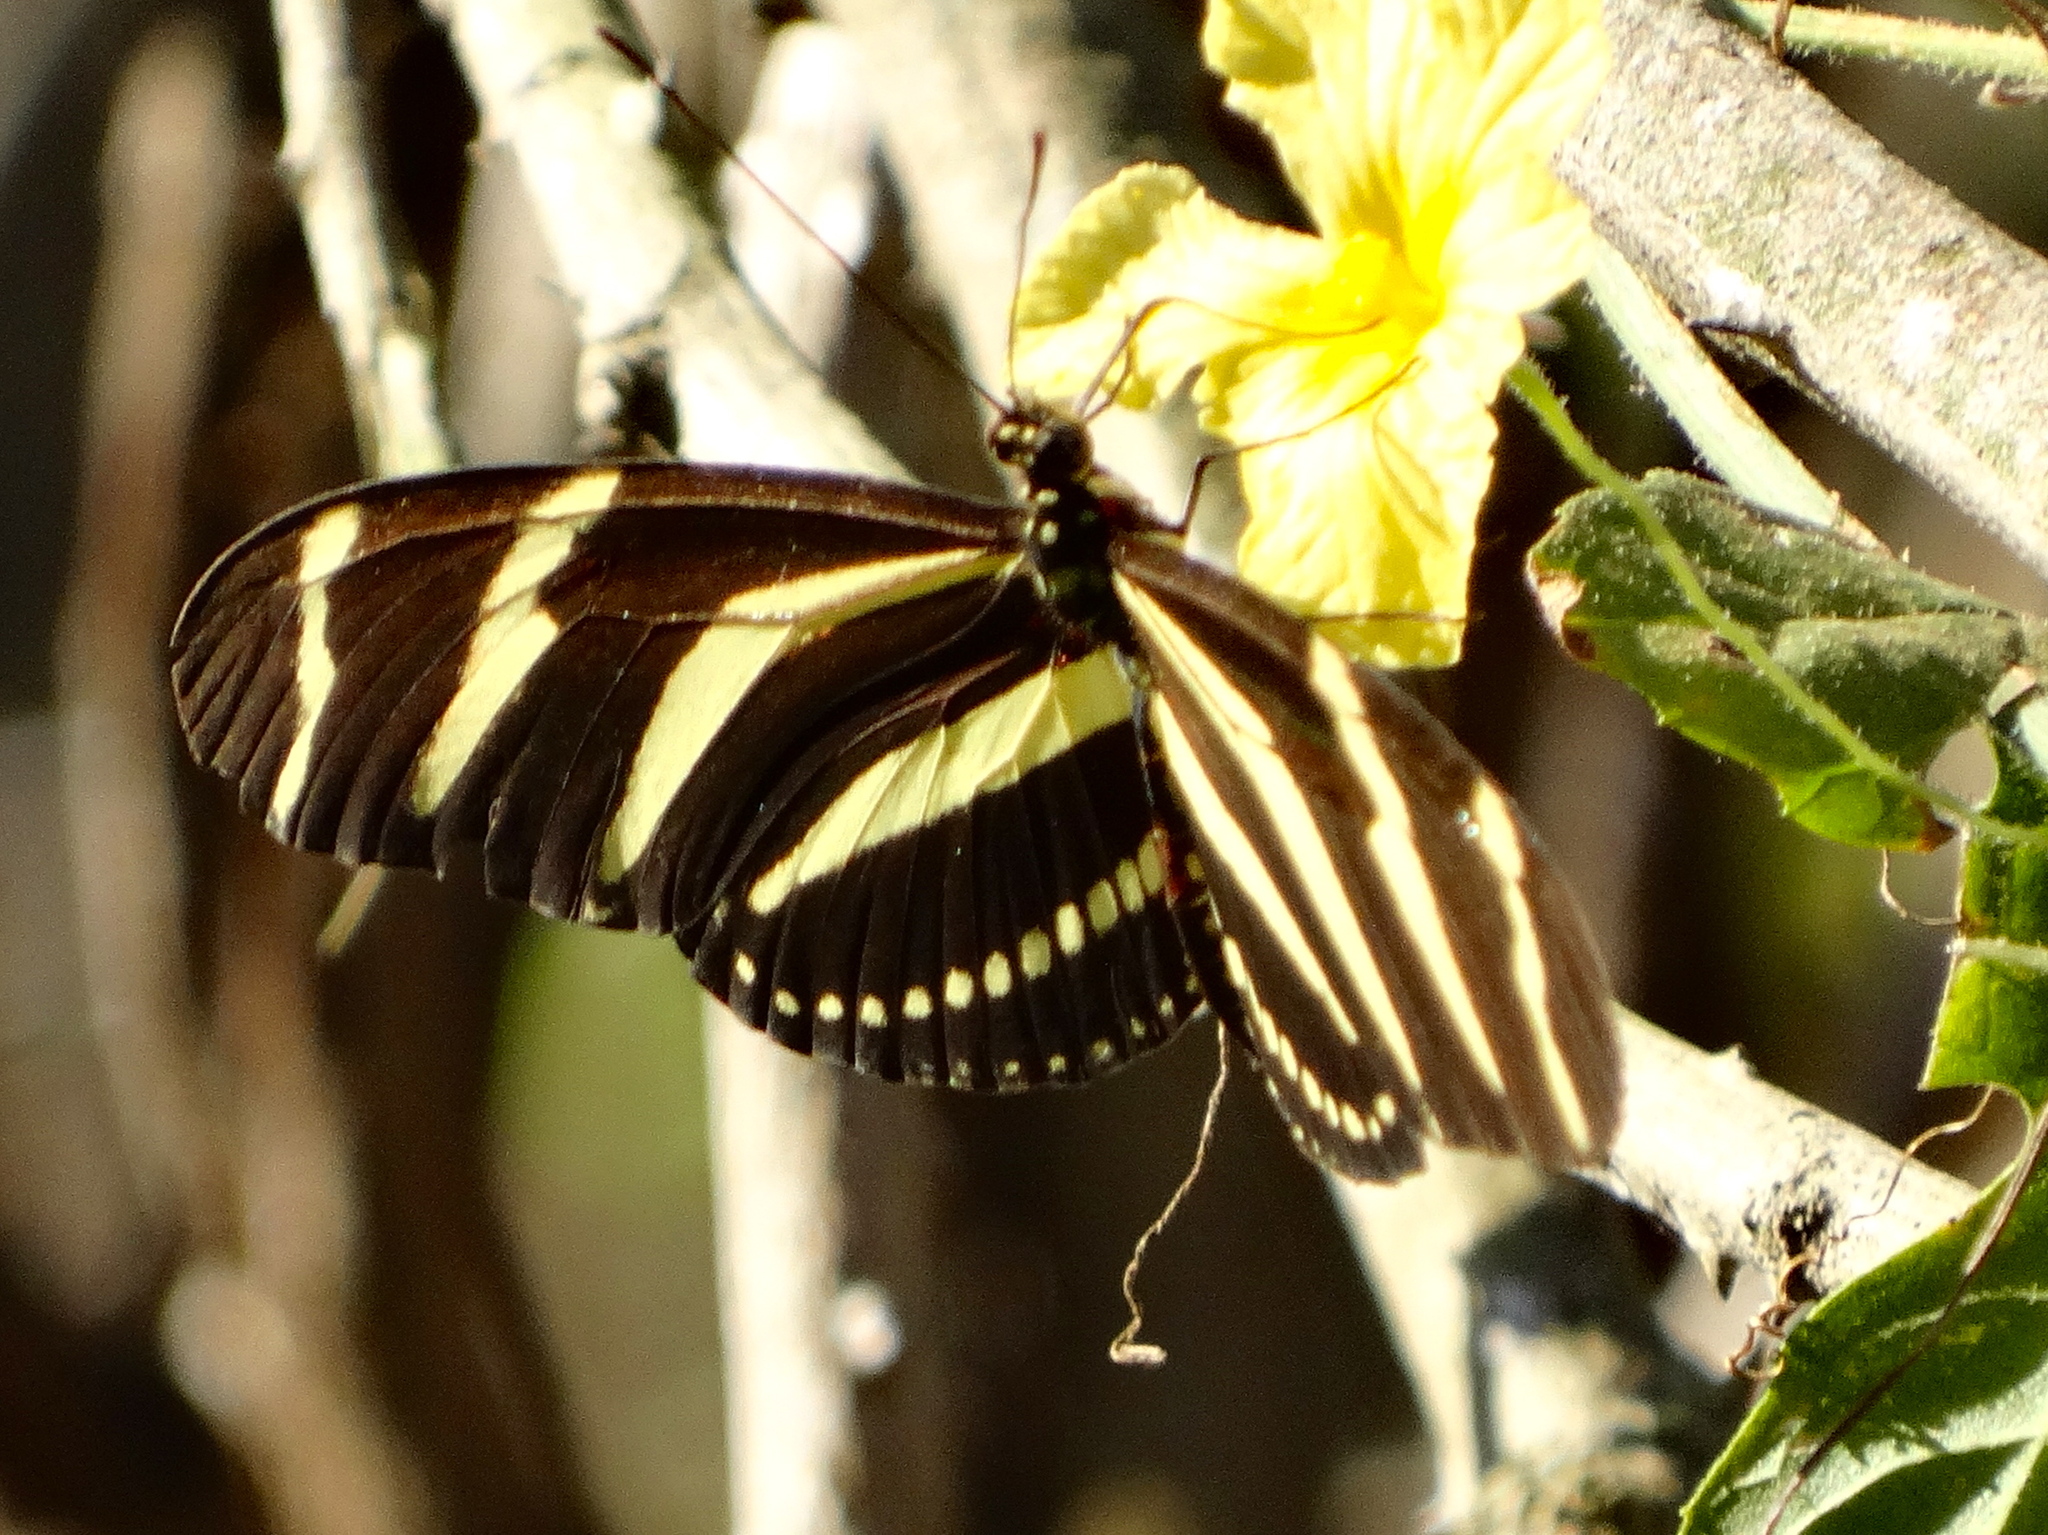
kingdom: Animalia
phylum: Arthropoda
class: Insecta
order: Lepidoptera
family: Nymphalidae
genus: Heliconius
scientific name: Heliconius charithonia
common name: Zebra long wing
